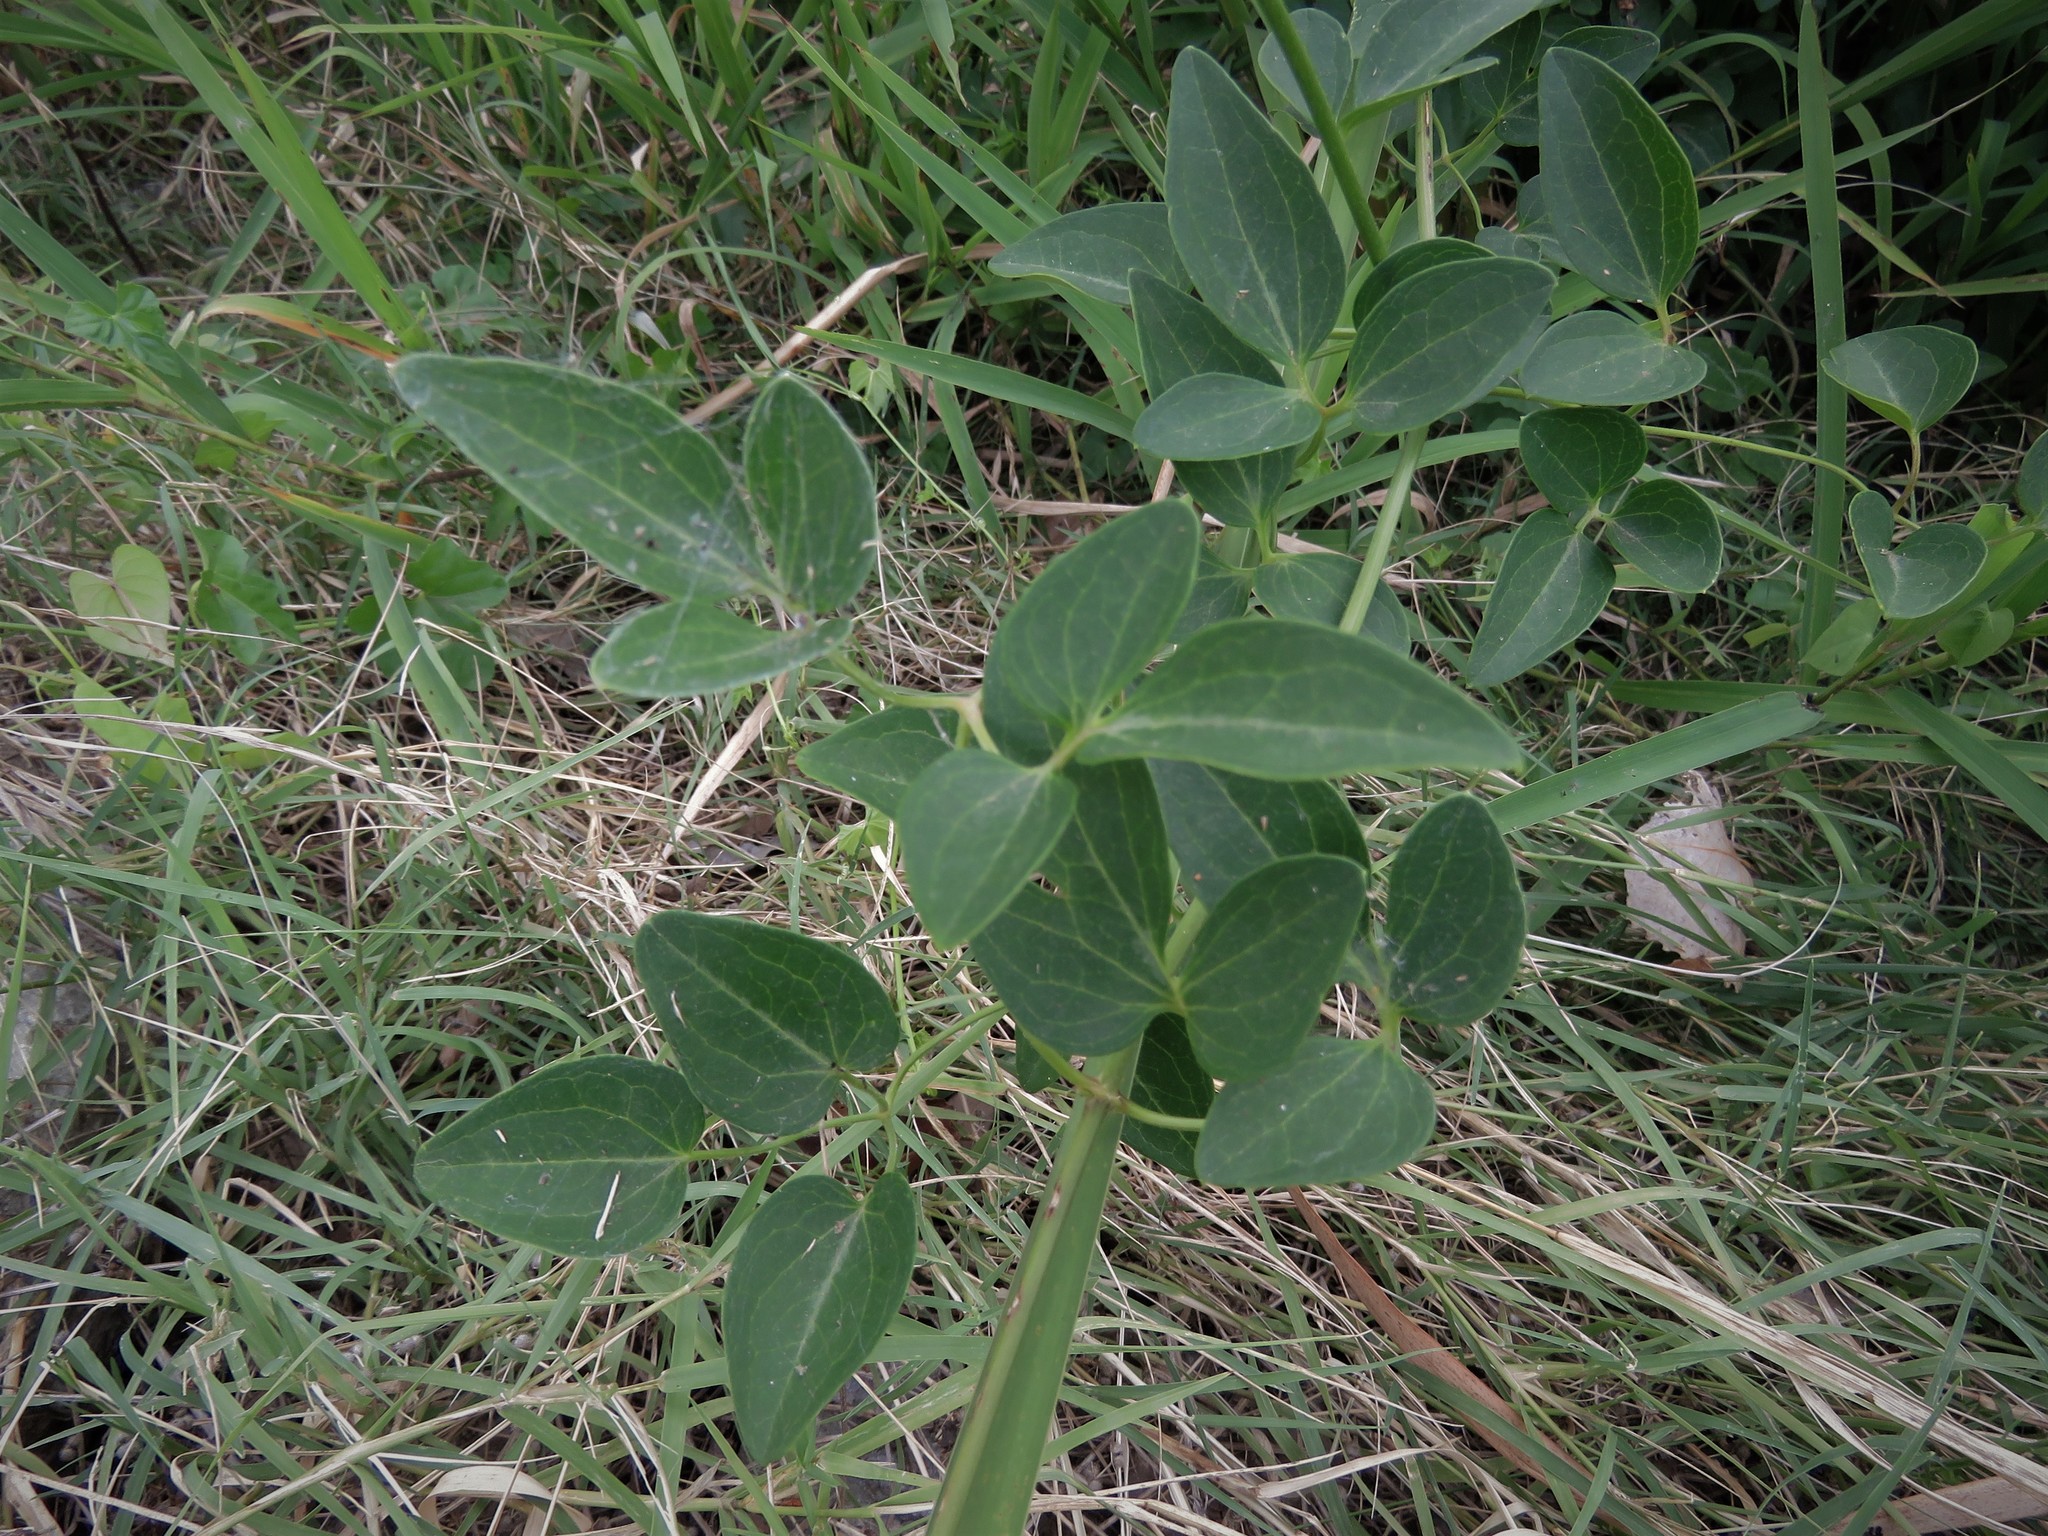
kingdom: Plantae
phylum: Tracheophyta
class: Magnoliopsida
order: Ranunculales
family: Ranunculaceae
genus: Clematis
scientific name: Clematis pitcheri
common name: Bellflower clematis
